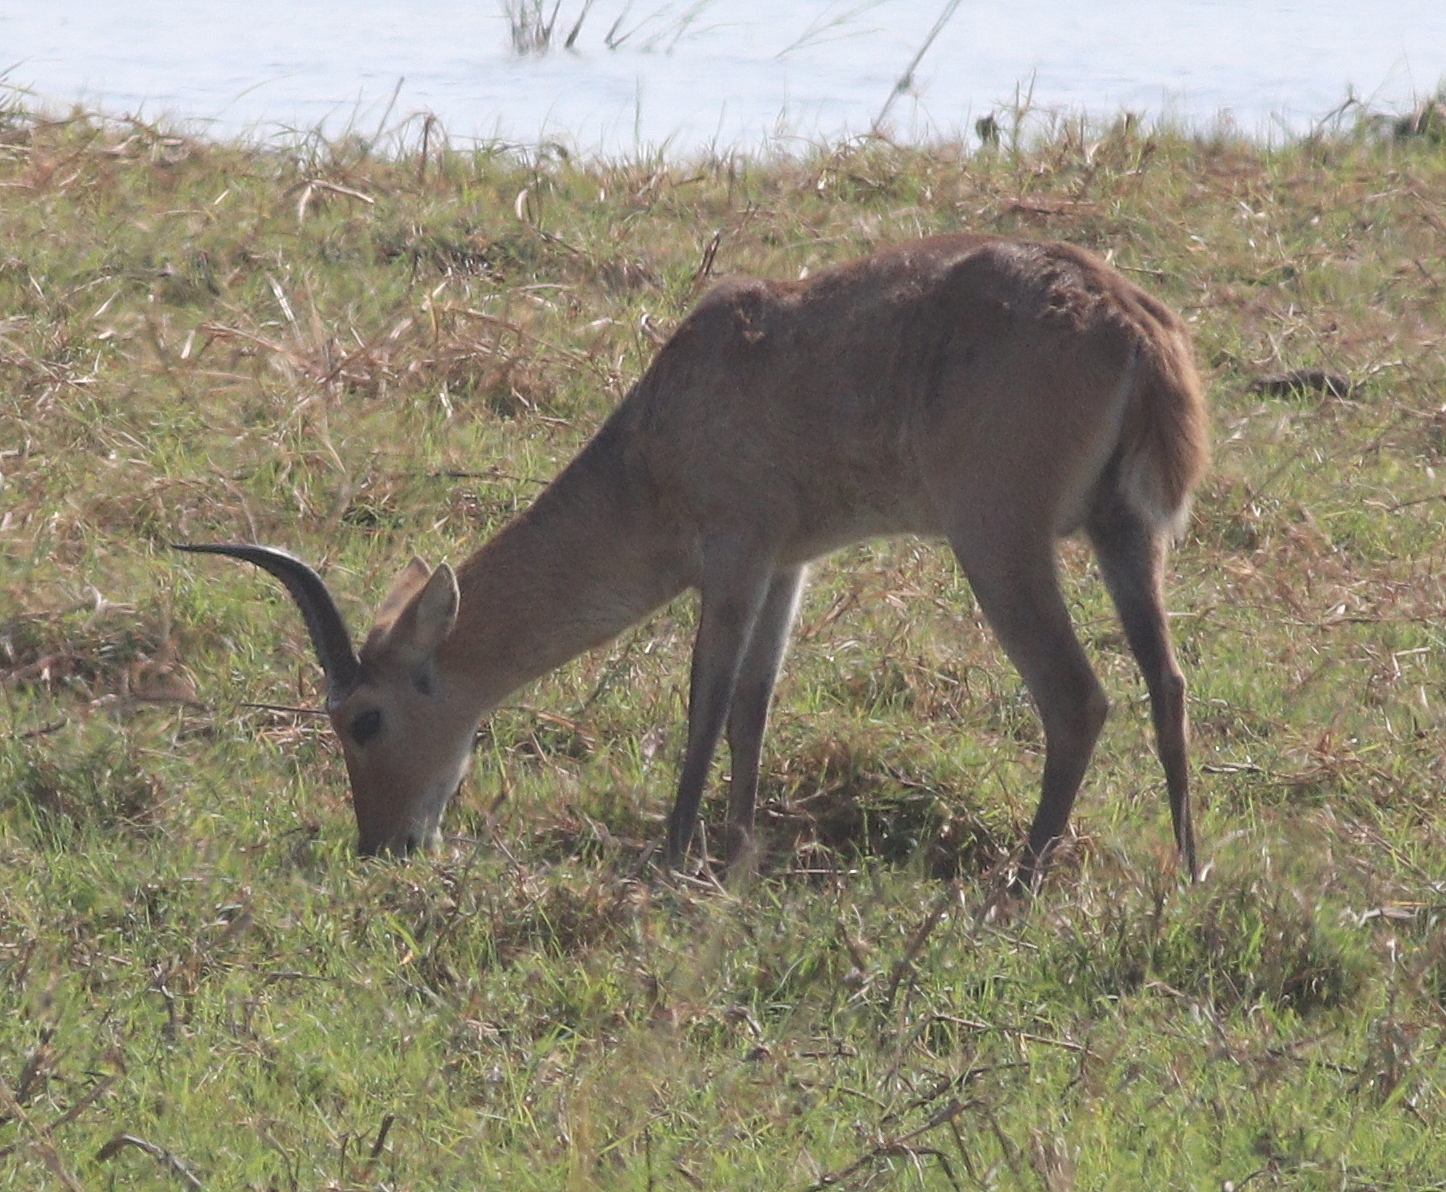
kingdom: Animalia
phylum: Chordata
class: Mammalia
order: Artiodactyla
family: Bovidae
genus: Redunca
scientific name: Redunca arundinum
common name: Southern reedbuck
